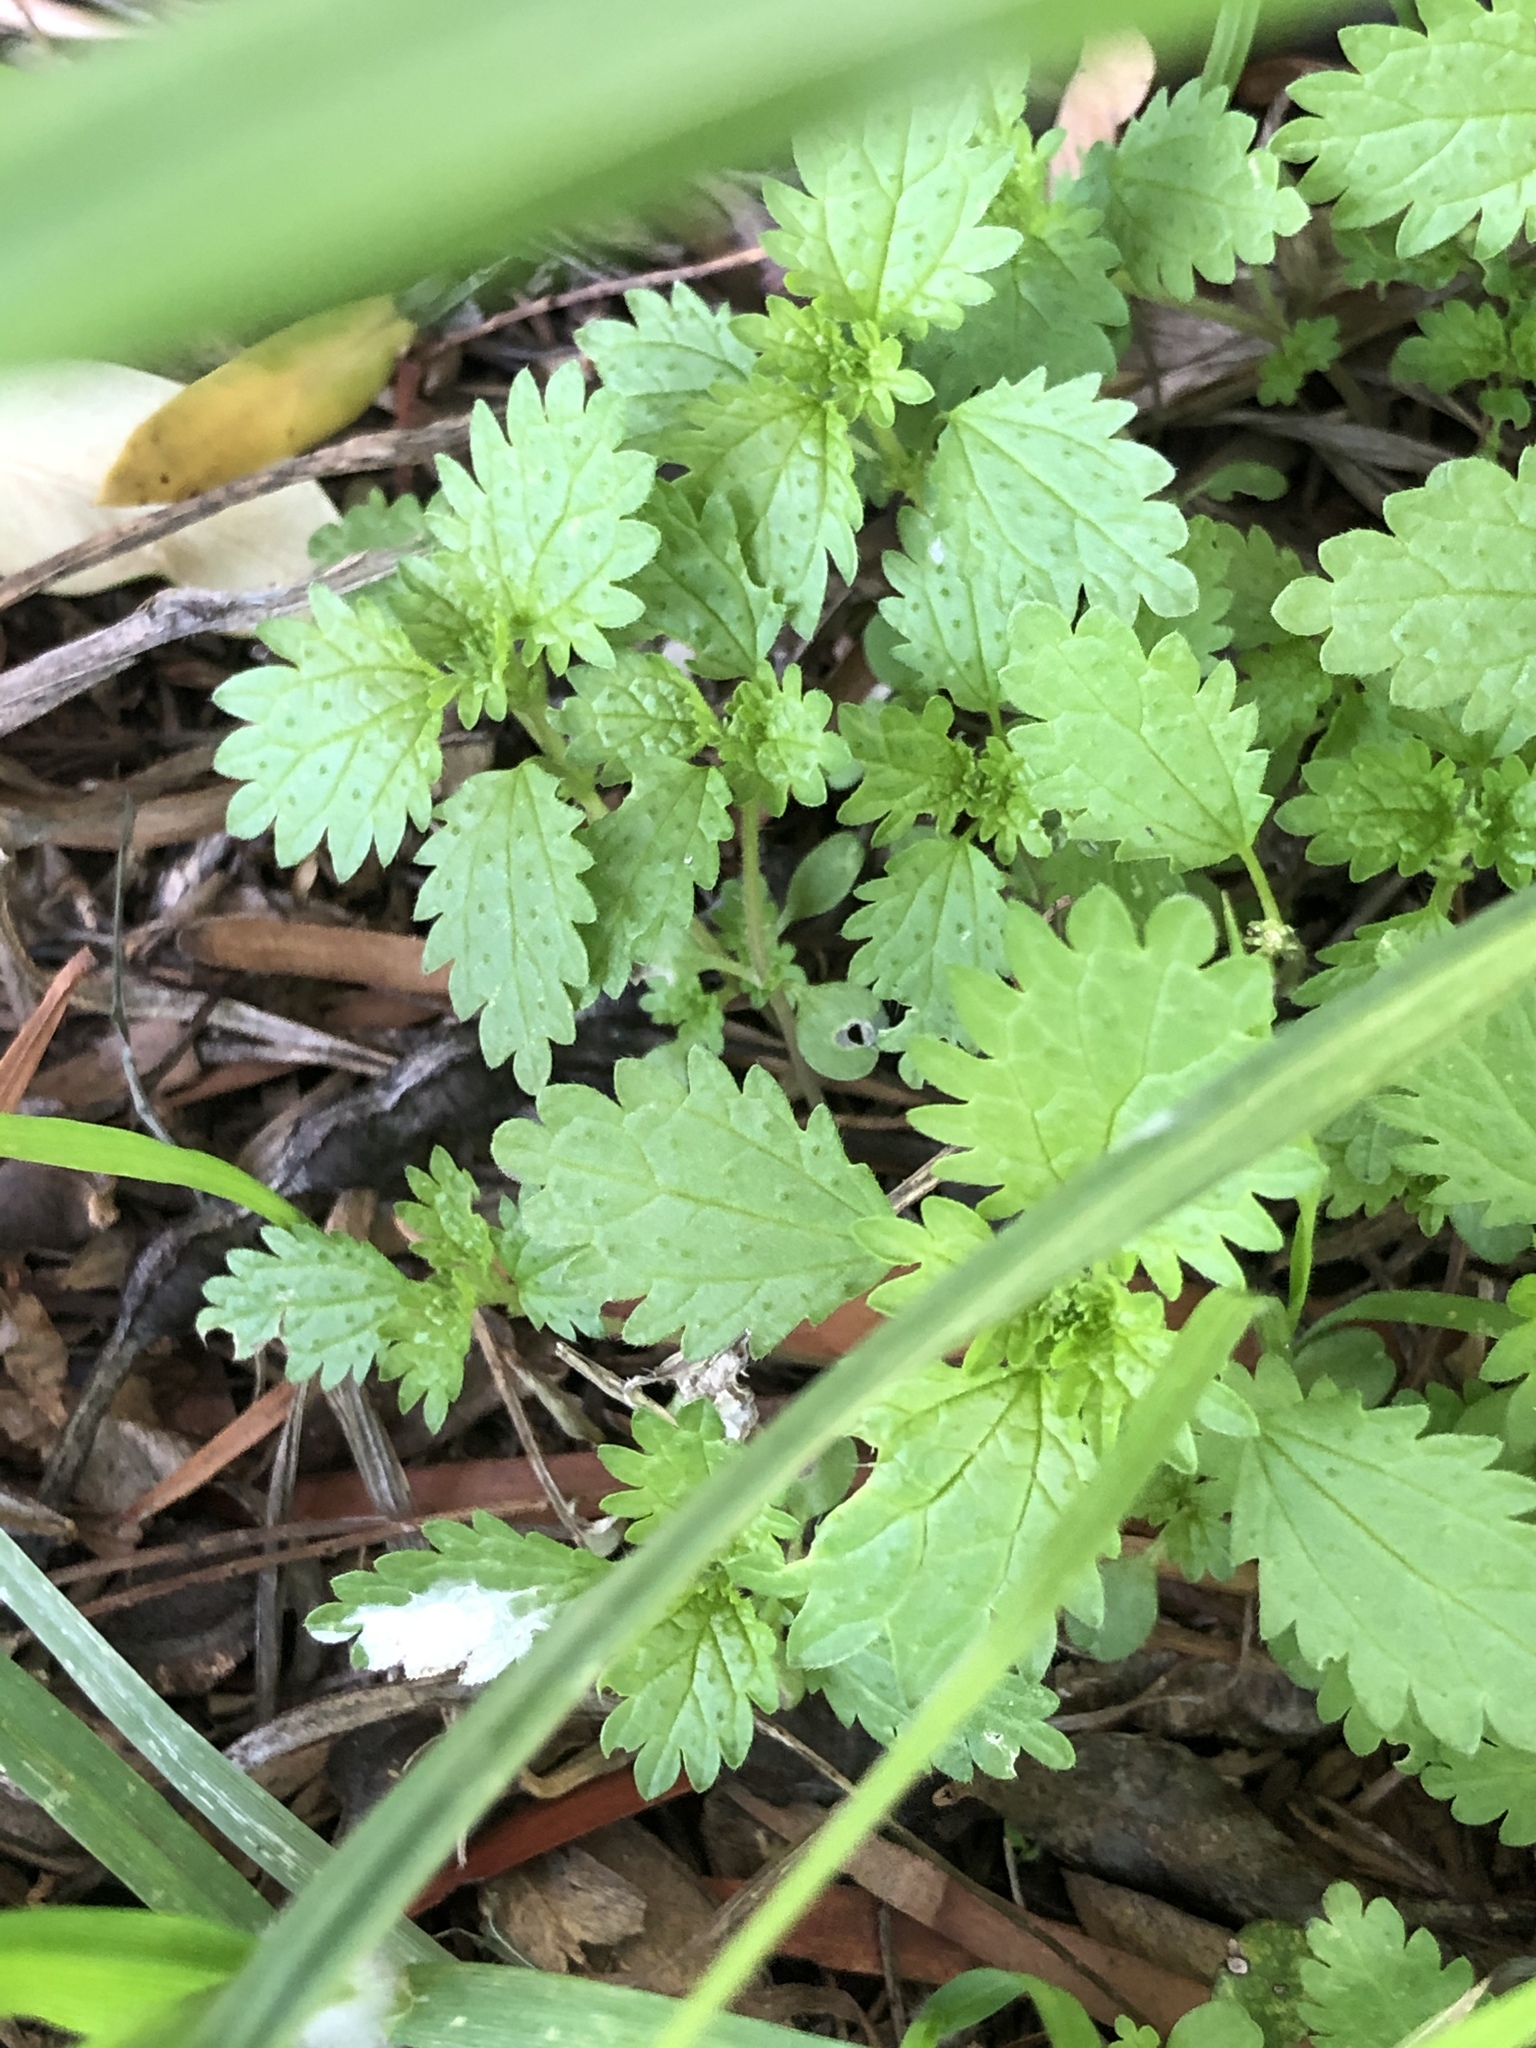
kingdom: Plantae
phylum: Tracheophyta
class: Magnoliopsida
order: Rosales
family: Urticaceae
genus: Urtica
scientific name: Urtica urens
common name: Dwarf nettle
